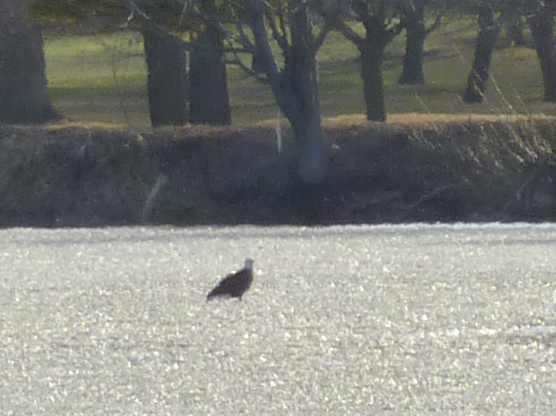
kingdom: Animalia
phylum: Chordata
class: Aves
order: Accipitriformes
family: Accipitridae
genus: Haliaeetus
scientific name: Haliaeetus leucocephalus
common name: Bald eagle
